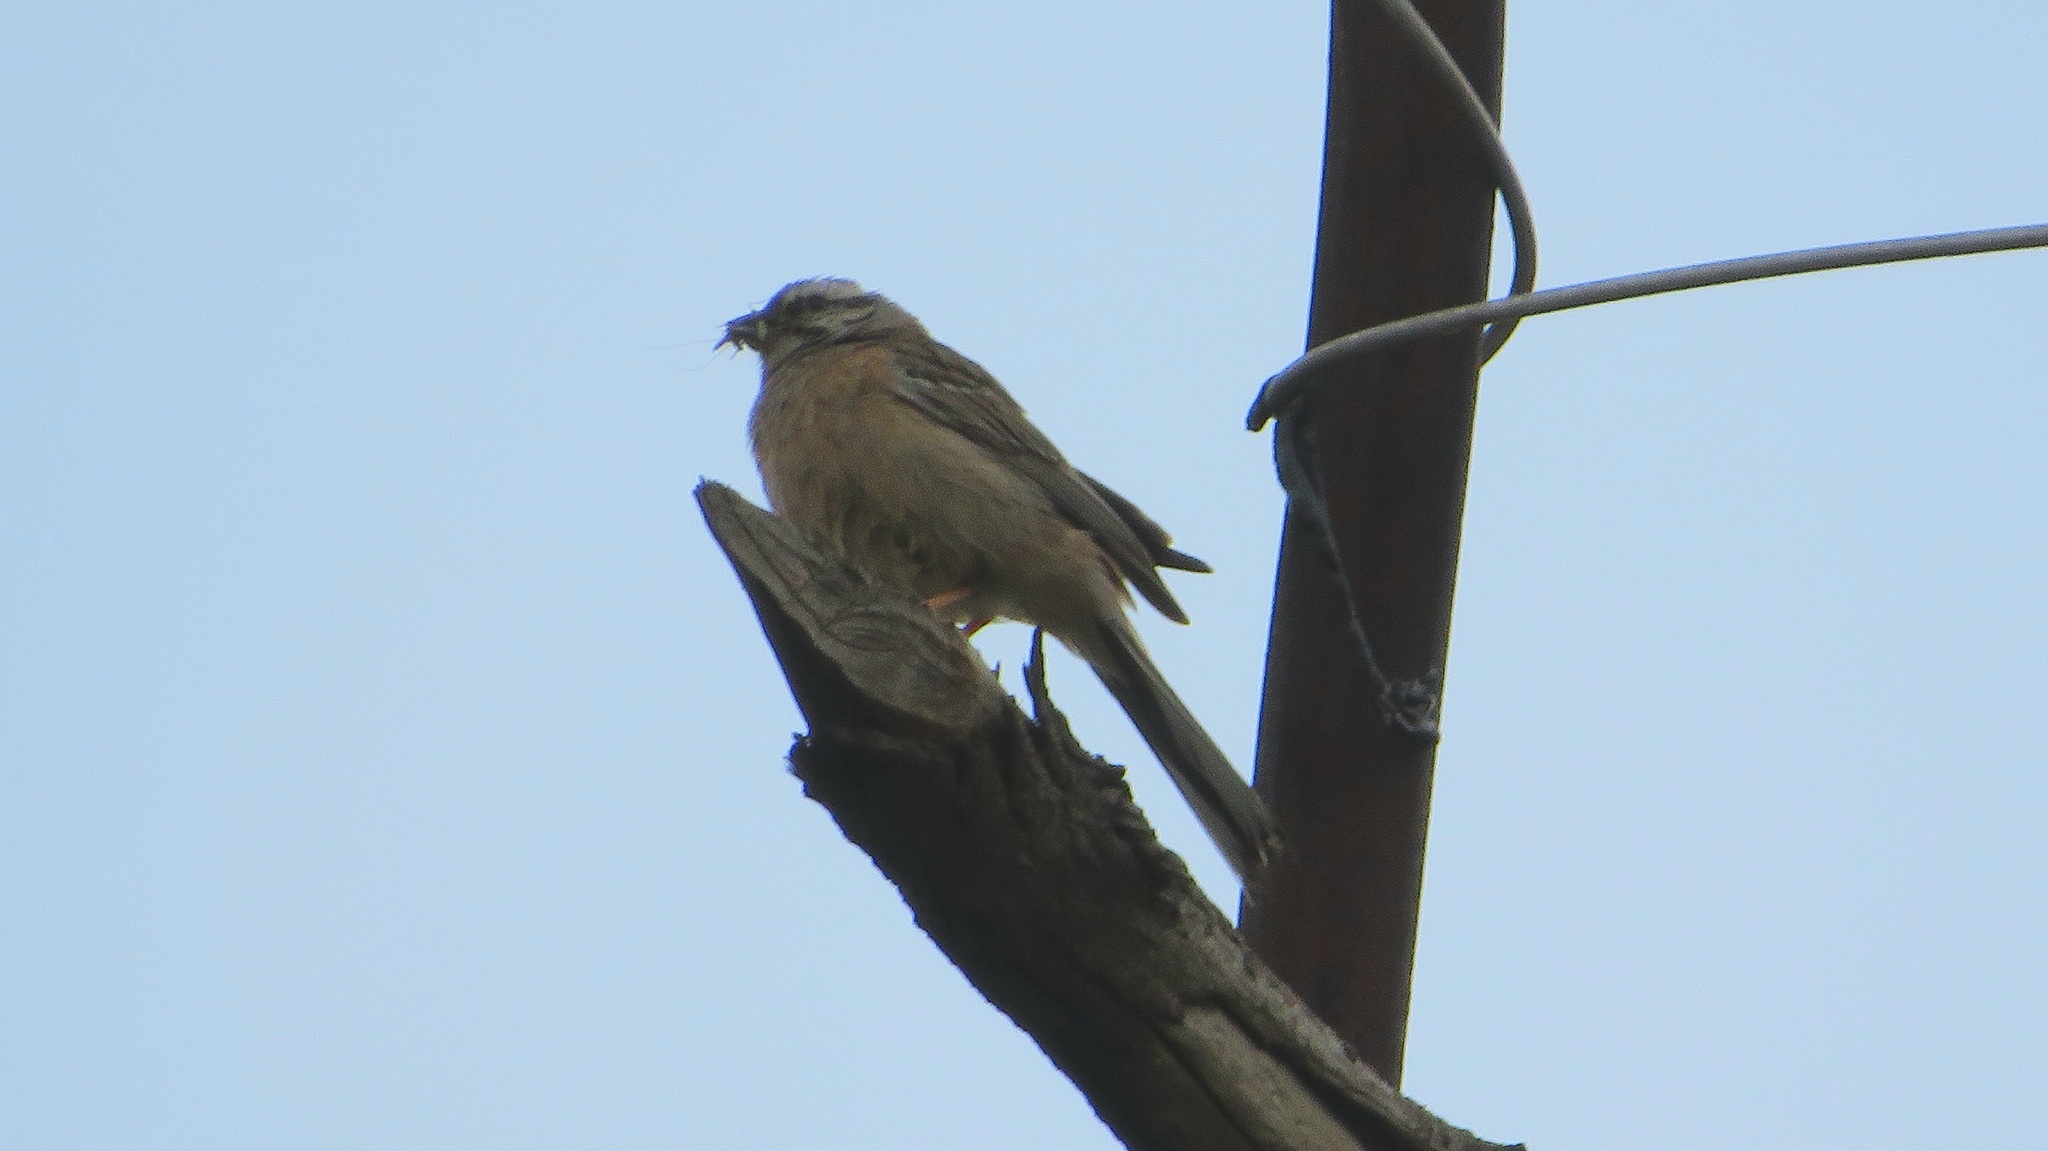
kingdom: Animalia
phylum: Chordata
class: Aves
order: Passeriformes
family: Emberizidae
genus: Emberiza
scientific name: Emberiza cia
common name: Rock bunting
